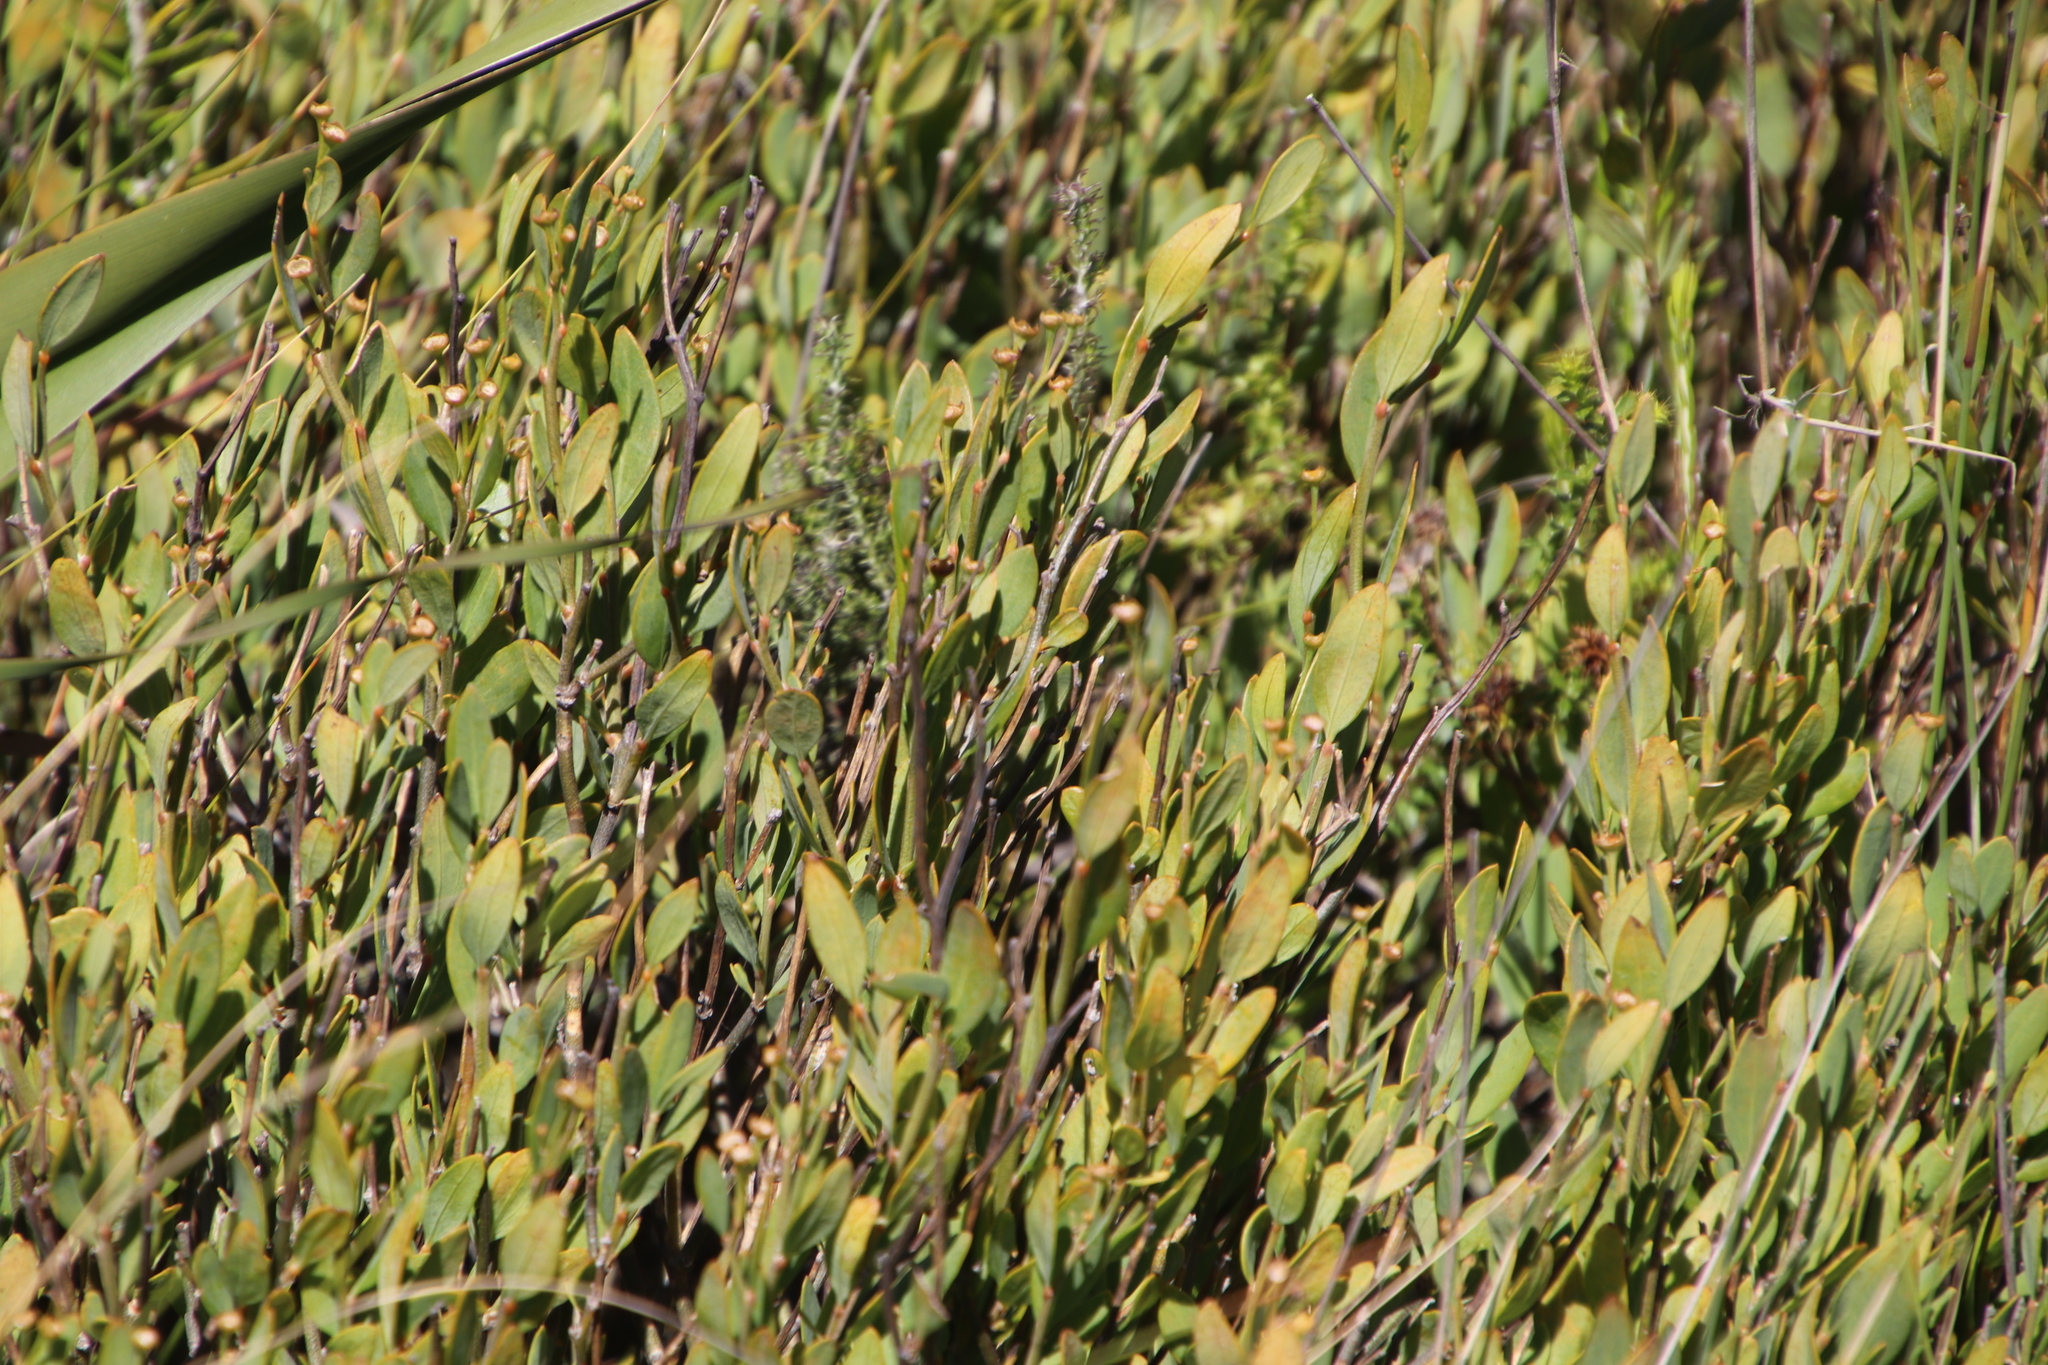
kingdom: Plantae
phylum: Tracheophyta
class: Magnoliopsida
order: Solanales
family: Montiniaceae
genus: Montinia
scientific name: Montinia caryophyllacea
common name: Wild clove-bush
